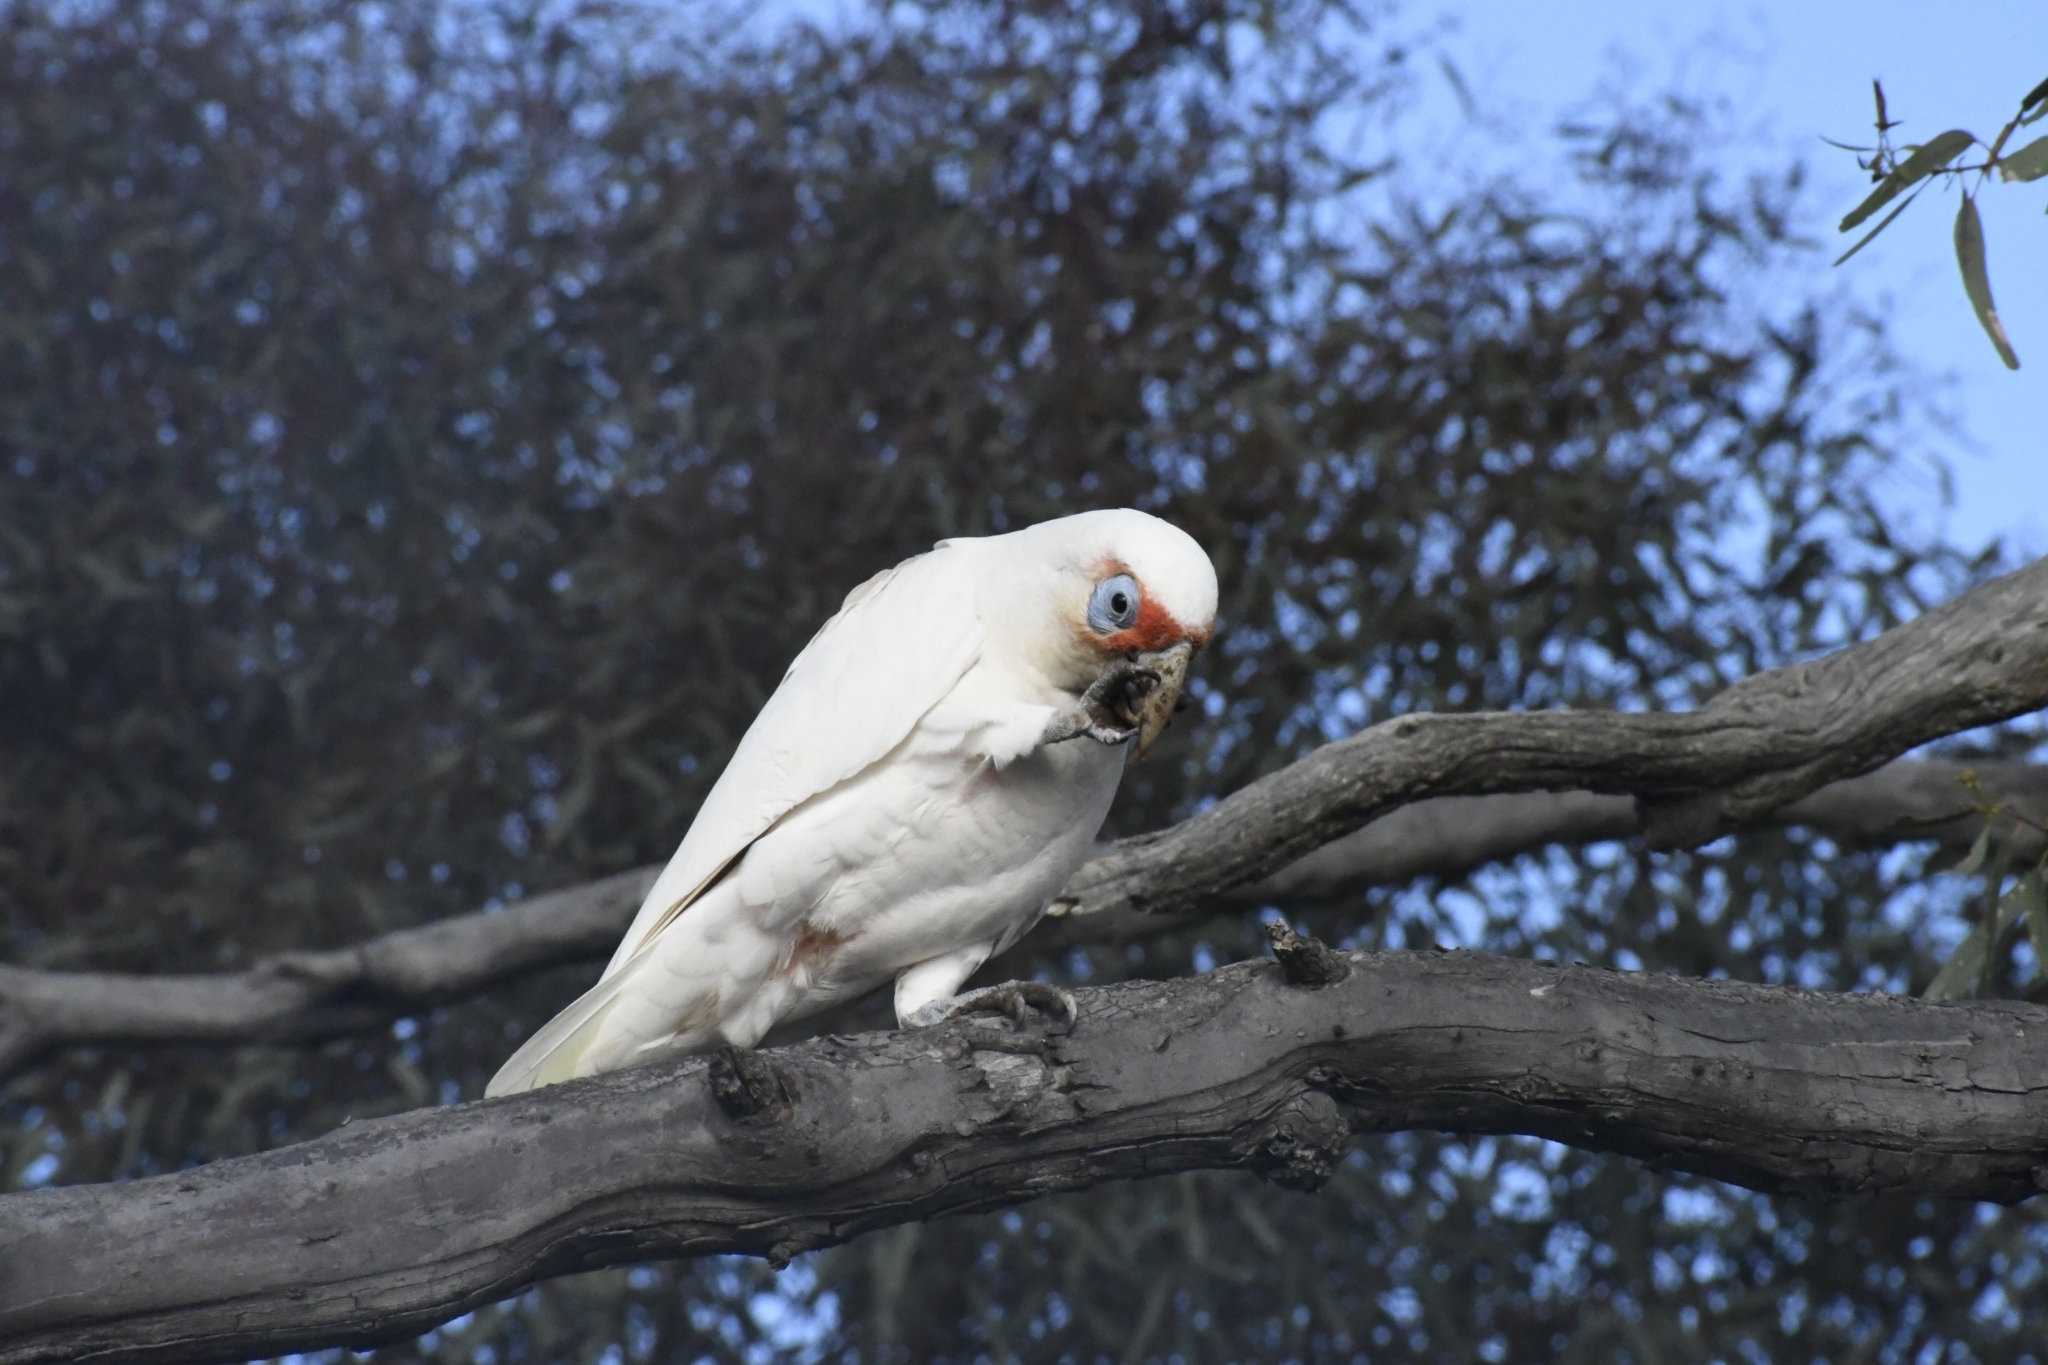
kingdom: Animalia
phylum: Chordata
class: Aves
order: Psittaciformes
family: Psittacidae
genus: Cacatua
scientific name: Cacatua tenuirostris
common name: Long-billed corella
